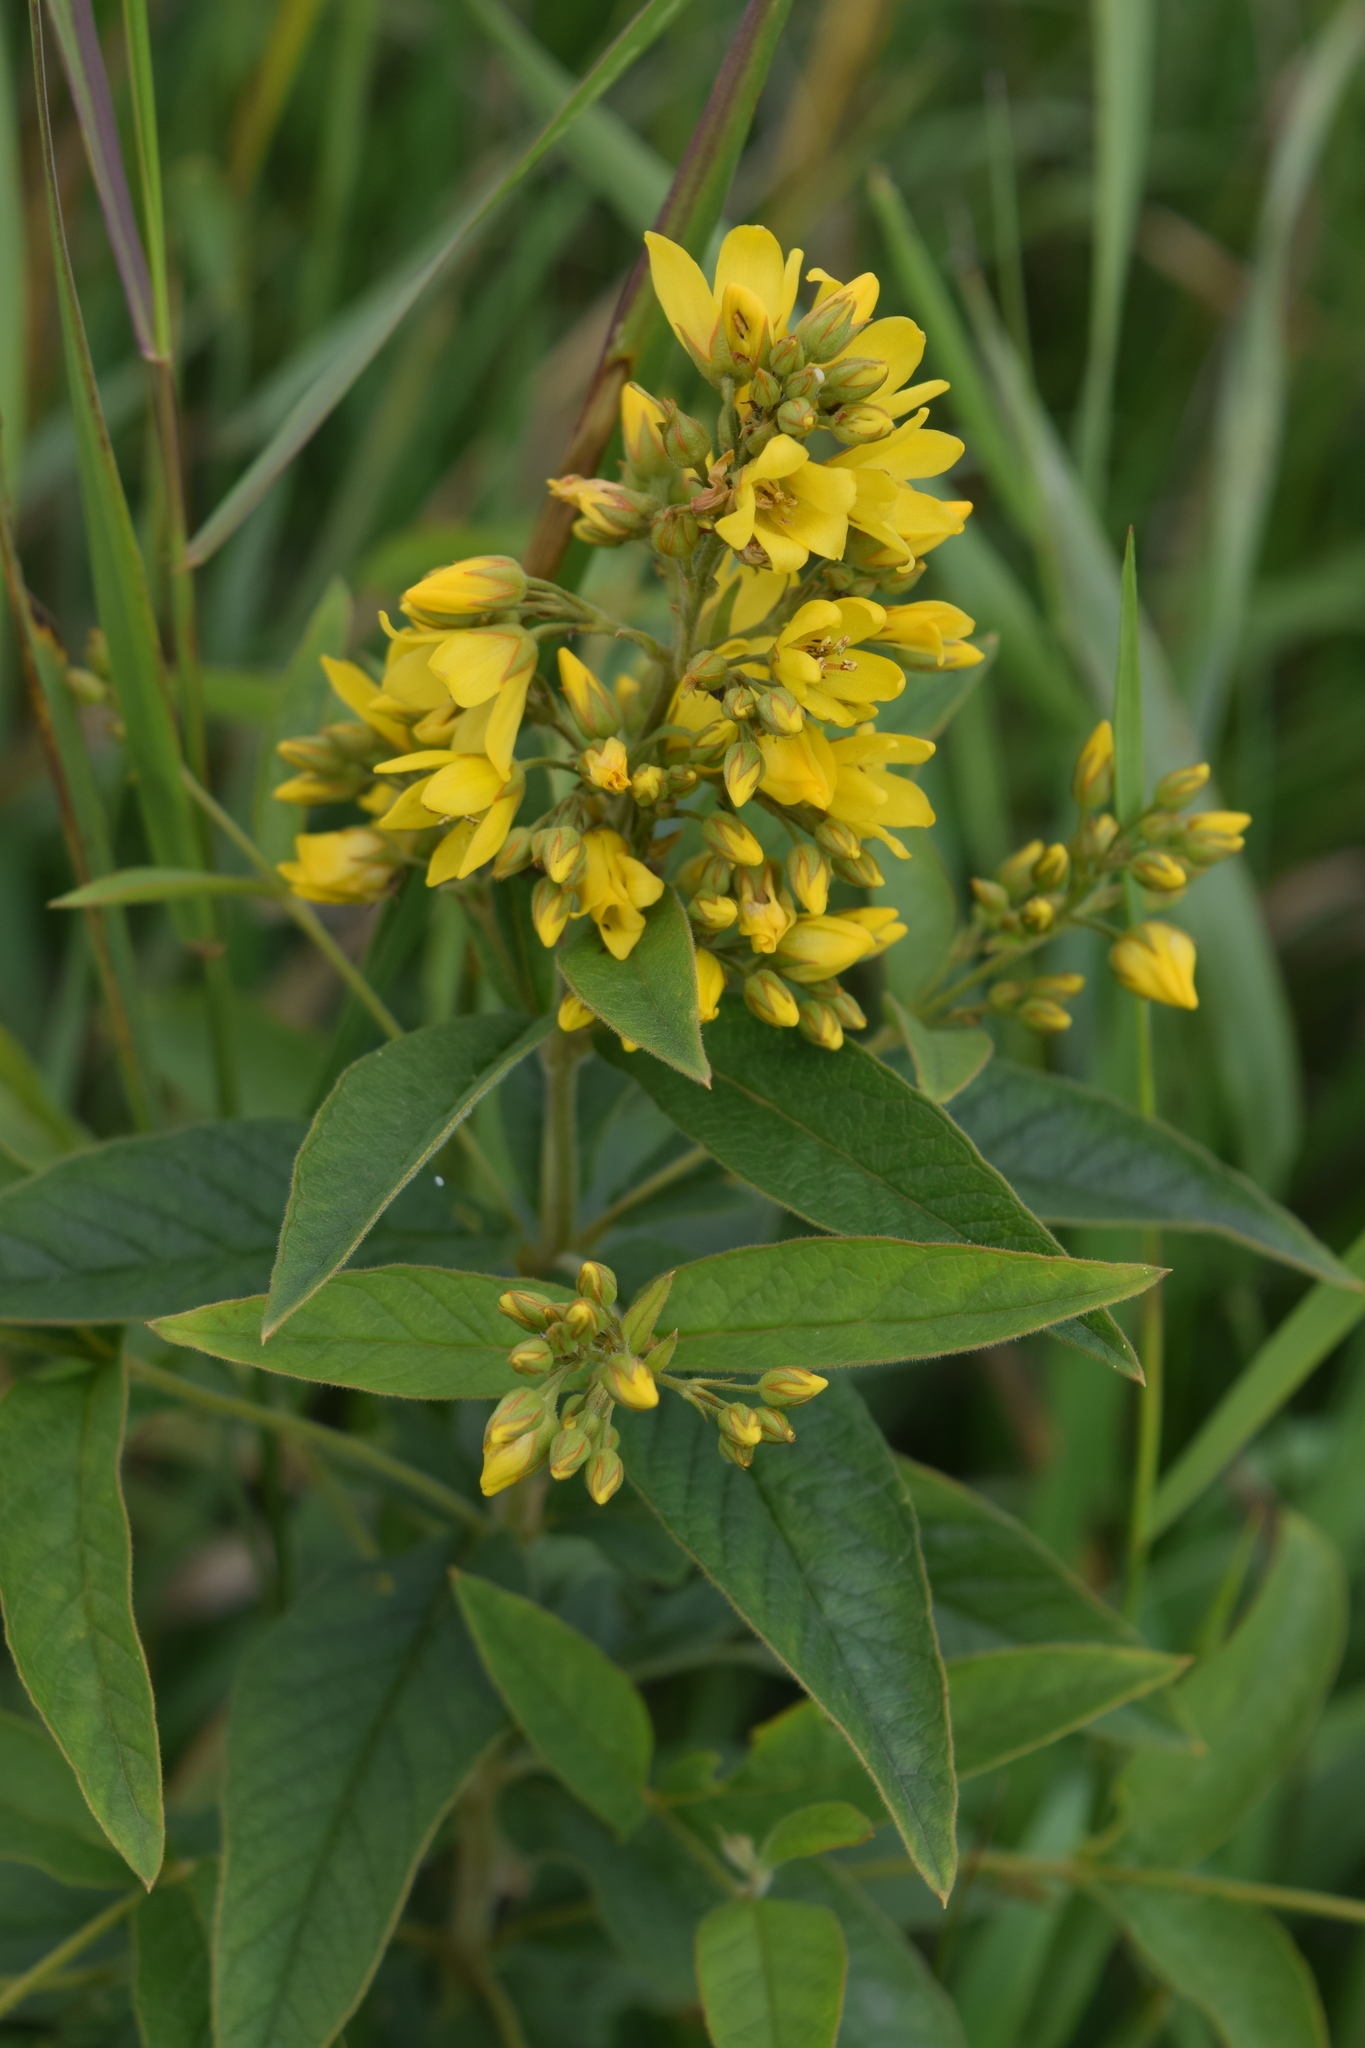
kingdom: Plantae
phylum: Tracheophyta
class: Magnoliopsida
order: Ericales
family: Primulaceae
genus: Lysimachia
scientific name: Lysimachia vulgaris
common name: Yellow loosestrife
